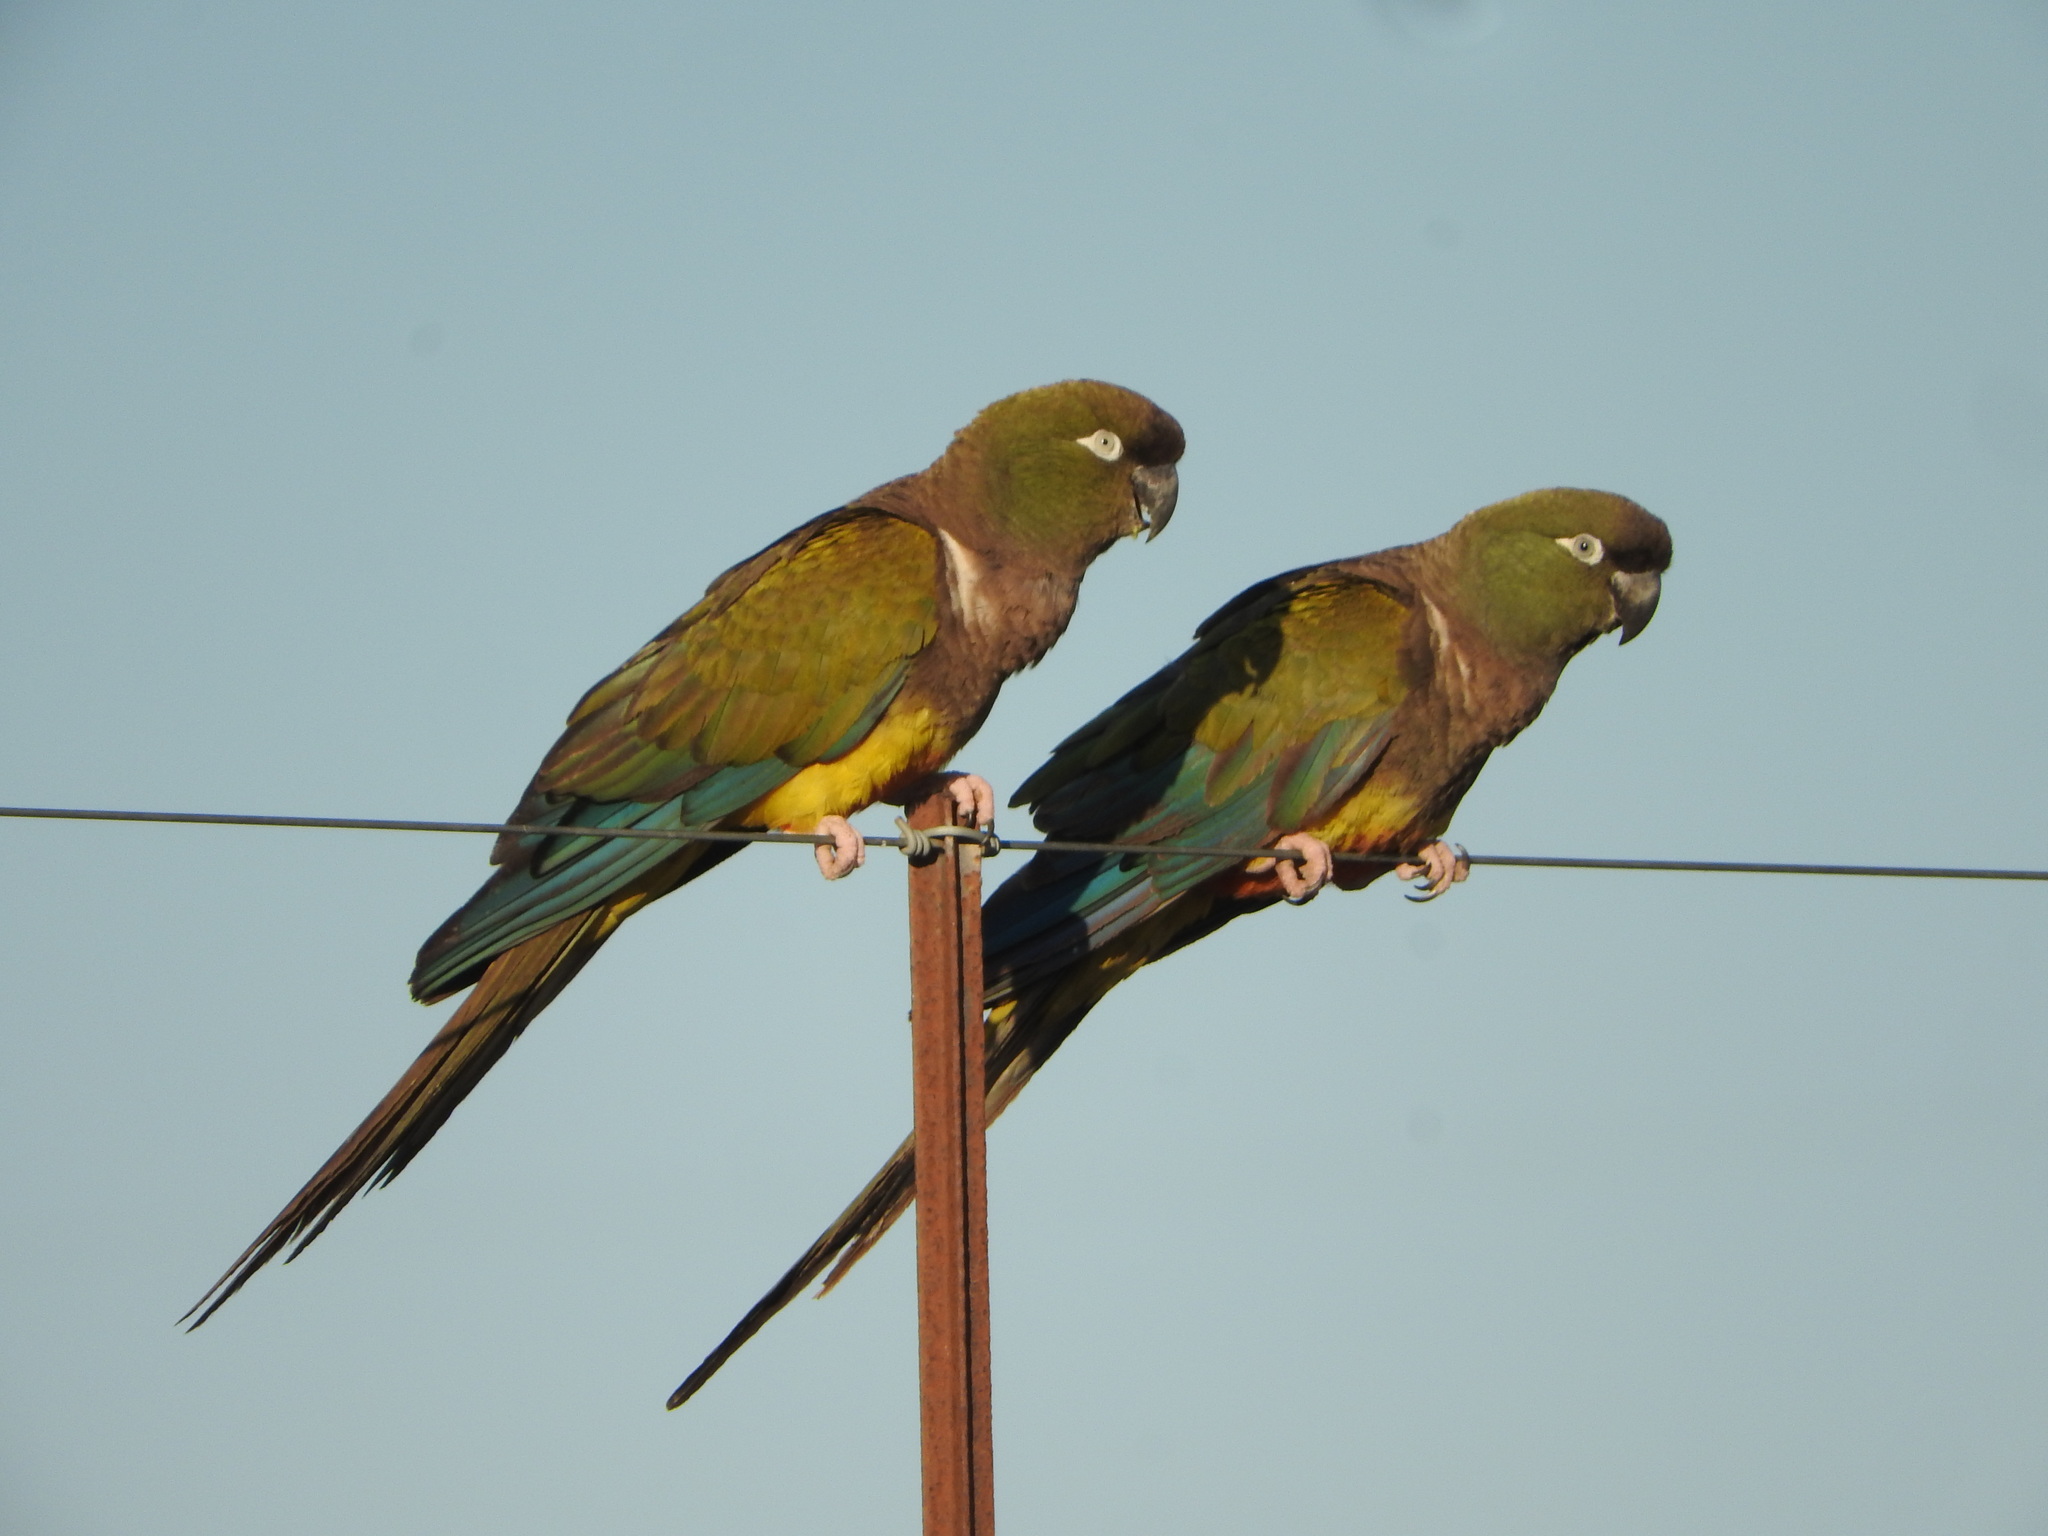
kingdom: Animalia
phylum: Chordata
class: Aves
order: Psittaciformes
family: Psittacidae
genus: Cyanoliseus
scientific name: Cyanoliseus patagonus
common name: Burrowing parrot
